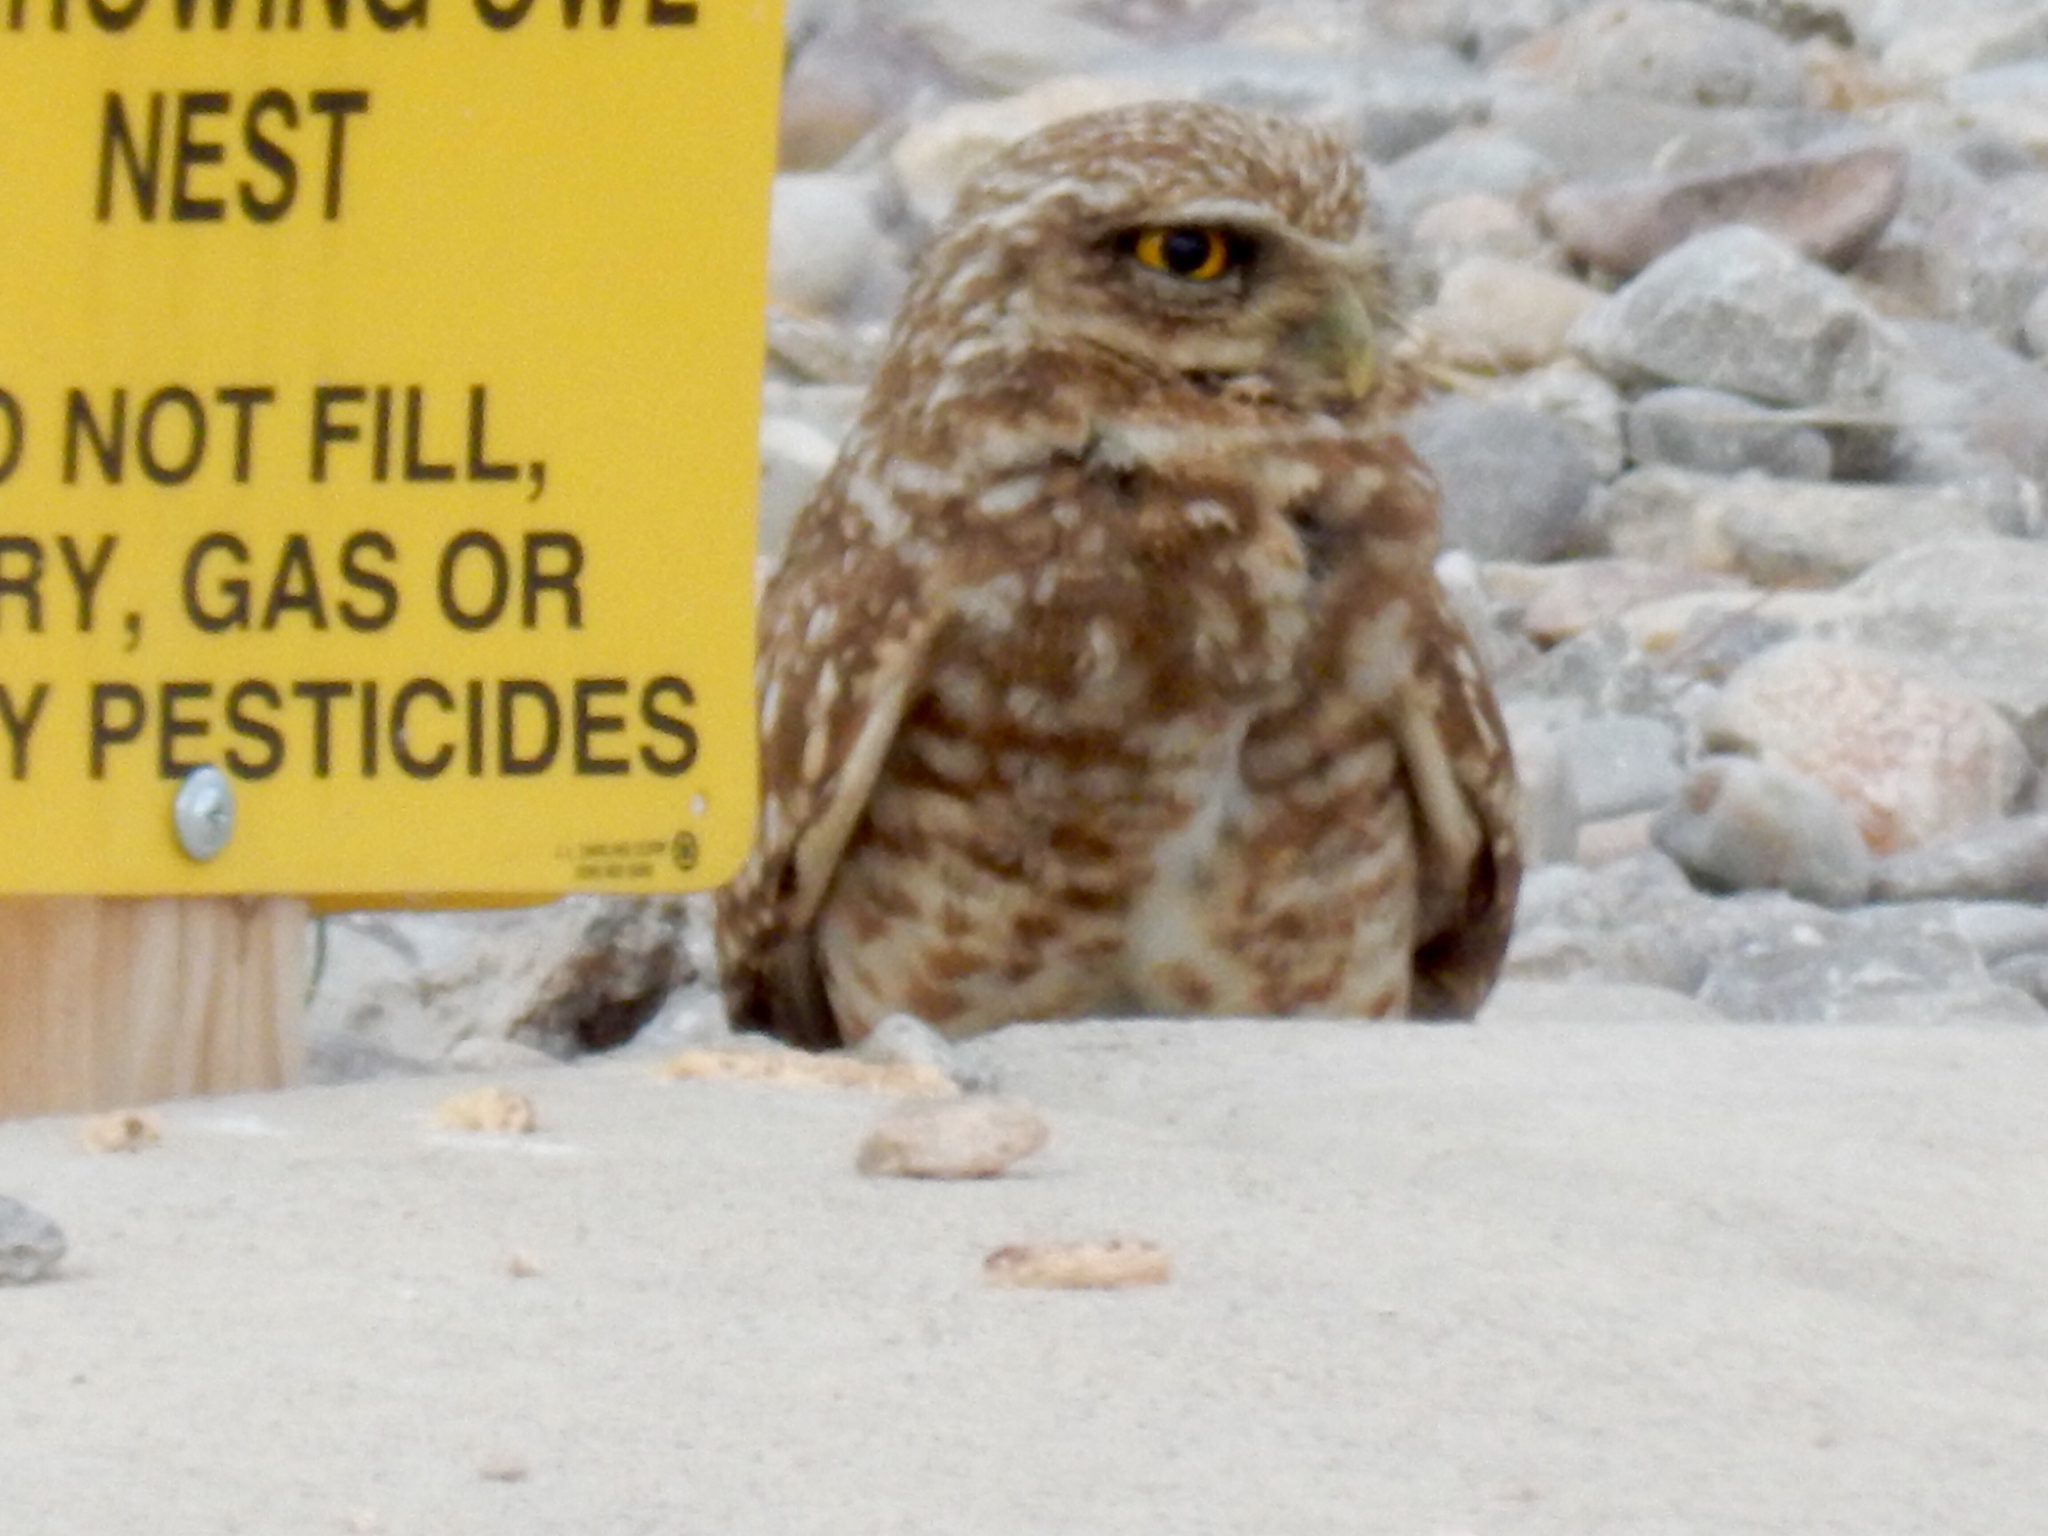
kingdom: Animalia
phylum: Chordata
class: Aves
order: Strigiformes
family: Strigidae
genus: Athene
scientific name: Athene cunicularia
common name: Burrowing owl
